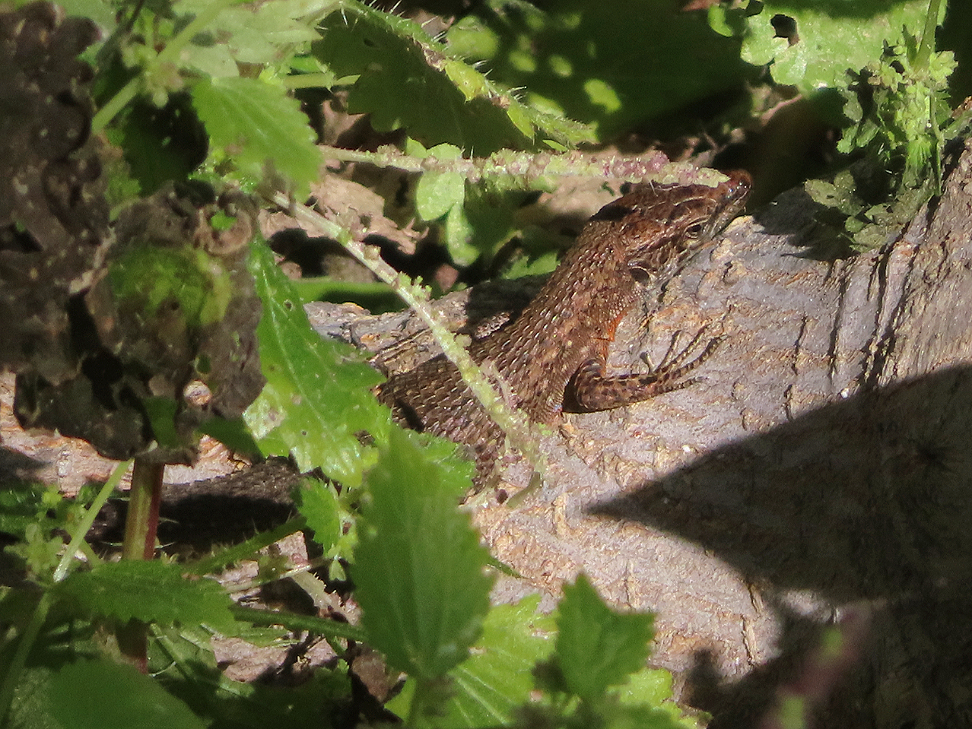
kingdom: Animalia
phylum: Chordata
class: Squamata
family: Lacertidae
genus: Algyroides
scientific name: Algyroides nigropunctatus
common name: Blue-throated keeled lizard
